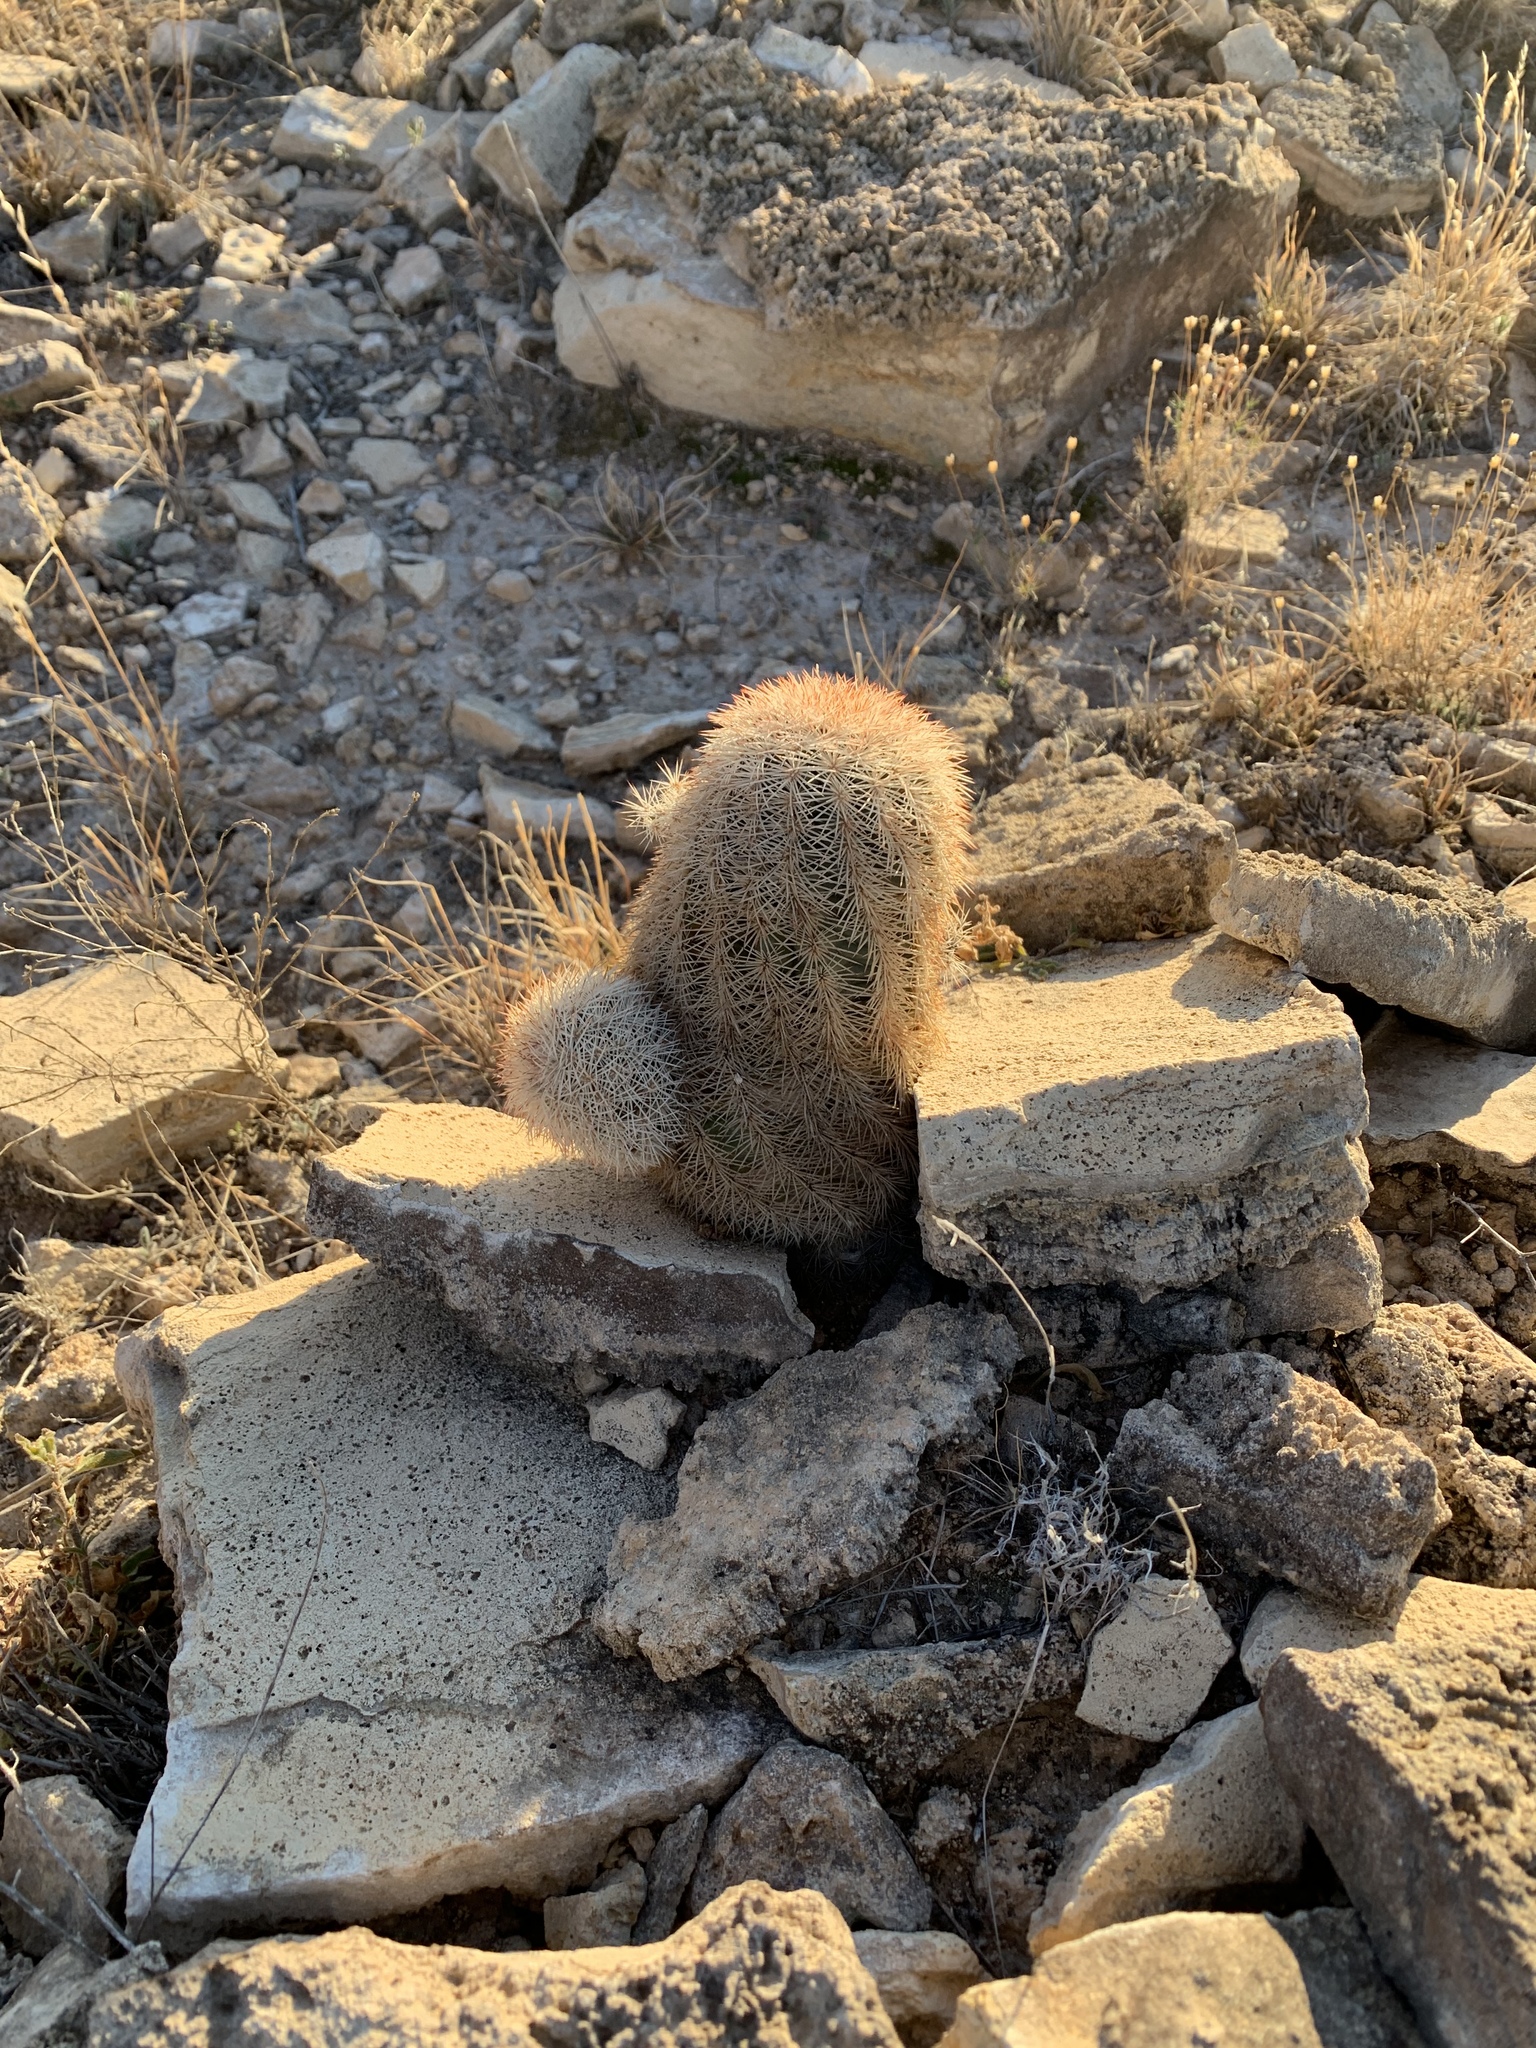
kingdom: Plantae
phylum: Tracheophyta
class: Magnoliopsida
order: Caryophyllales
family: Cactaceae
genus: Echinocereus
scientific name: Echinocereus dasyacanthus
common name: Spiny hedgehog cactus
